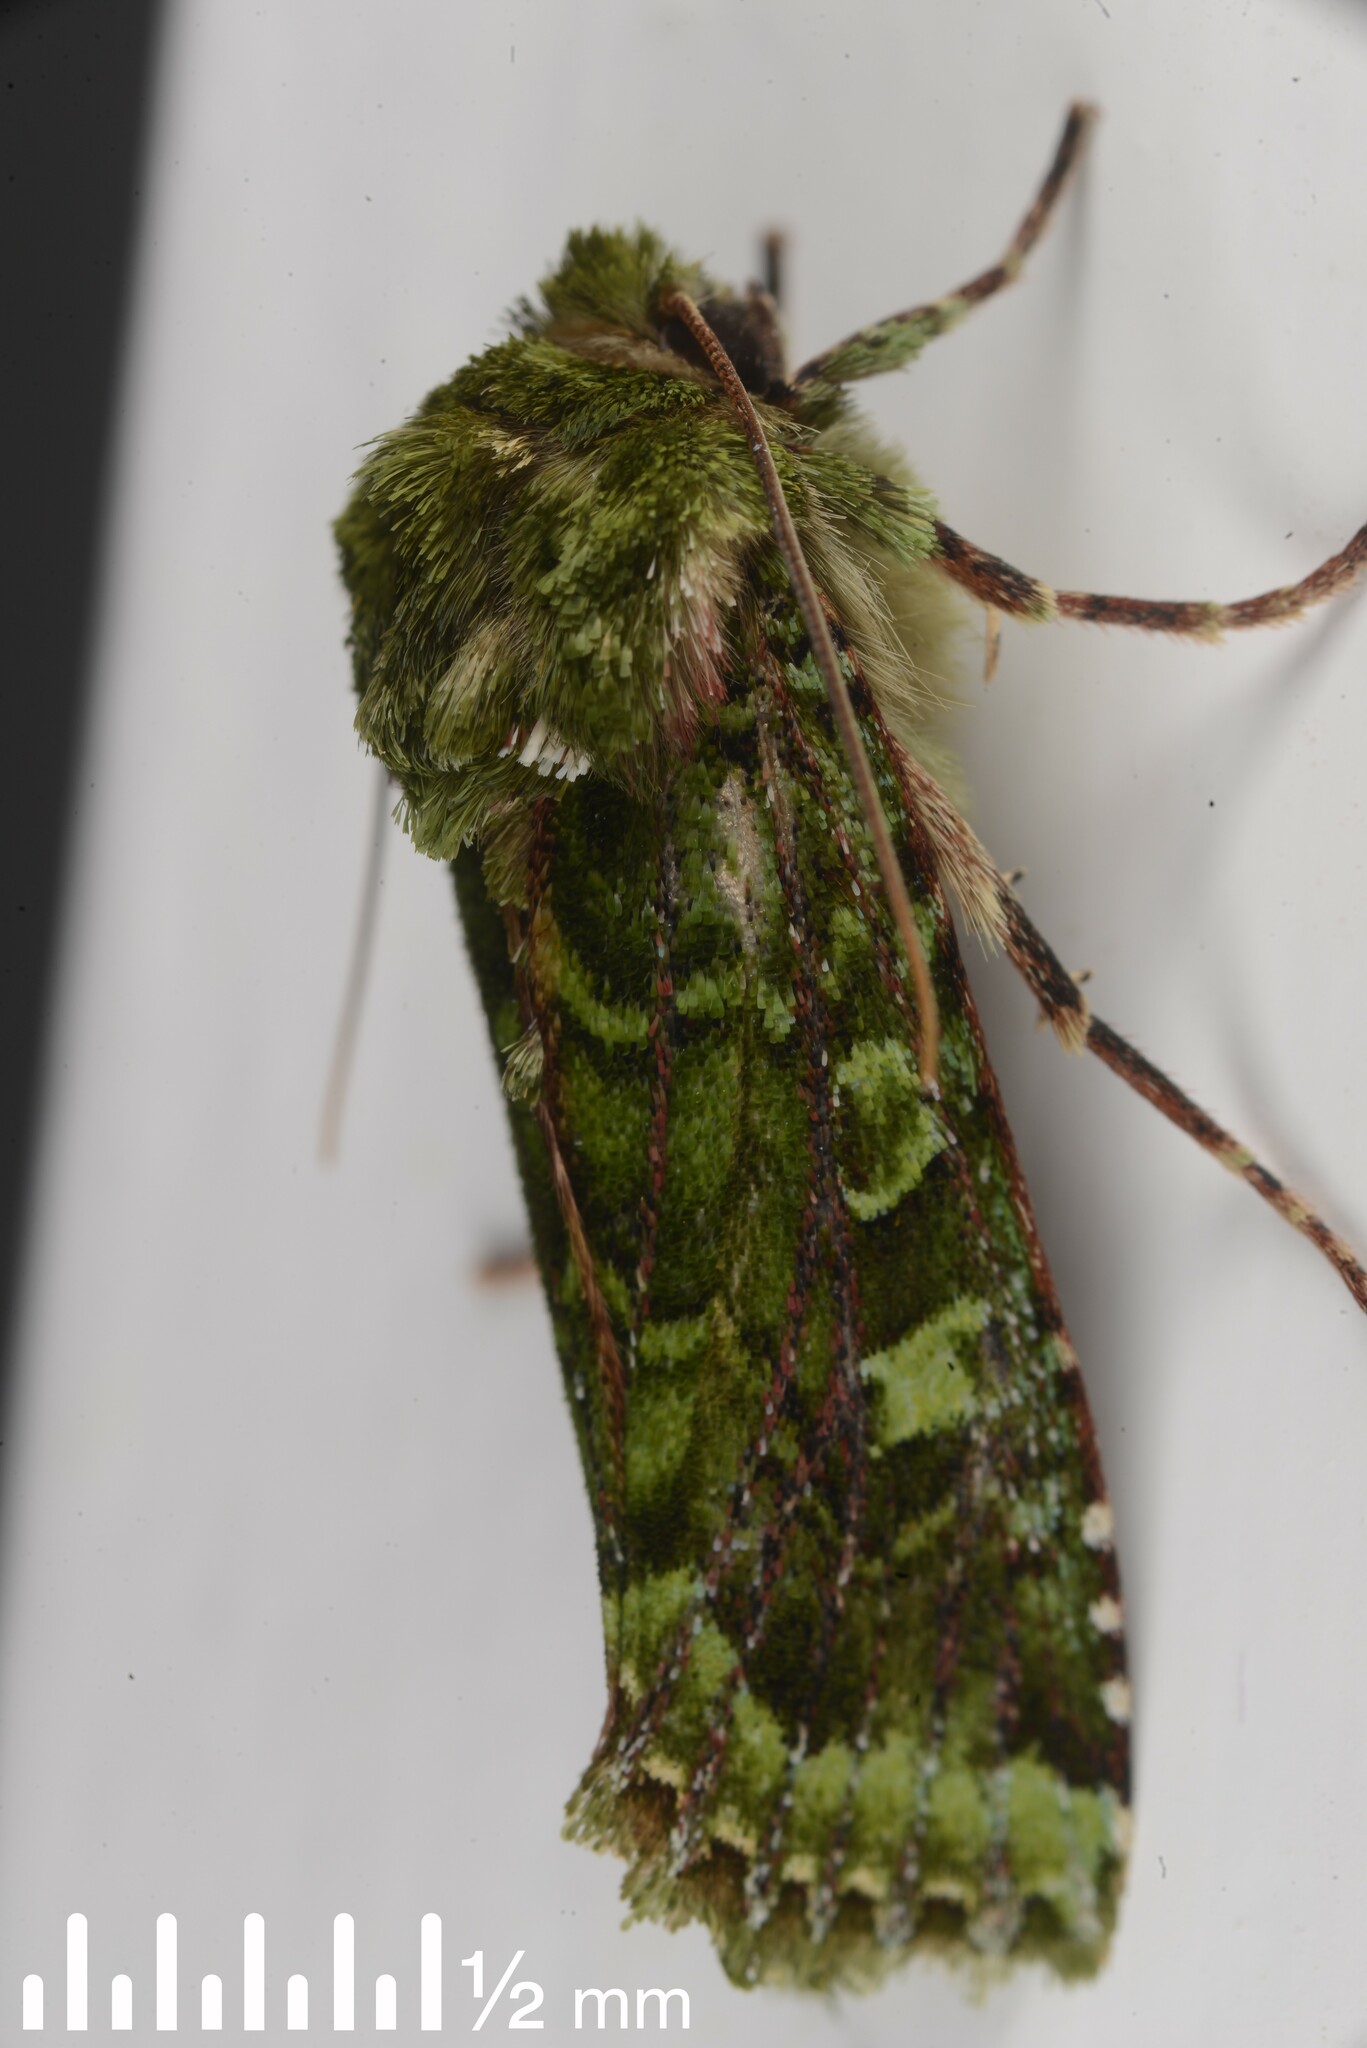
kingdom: Animalia
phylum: Arthropoda
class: Insecta
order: Lepidoptera
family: Noctuidae
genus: Feredayia
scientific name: Feredayia grammosa
